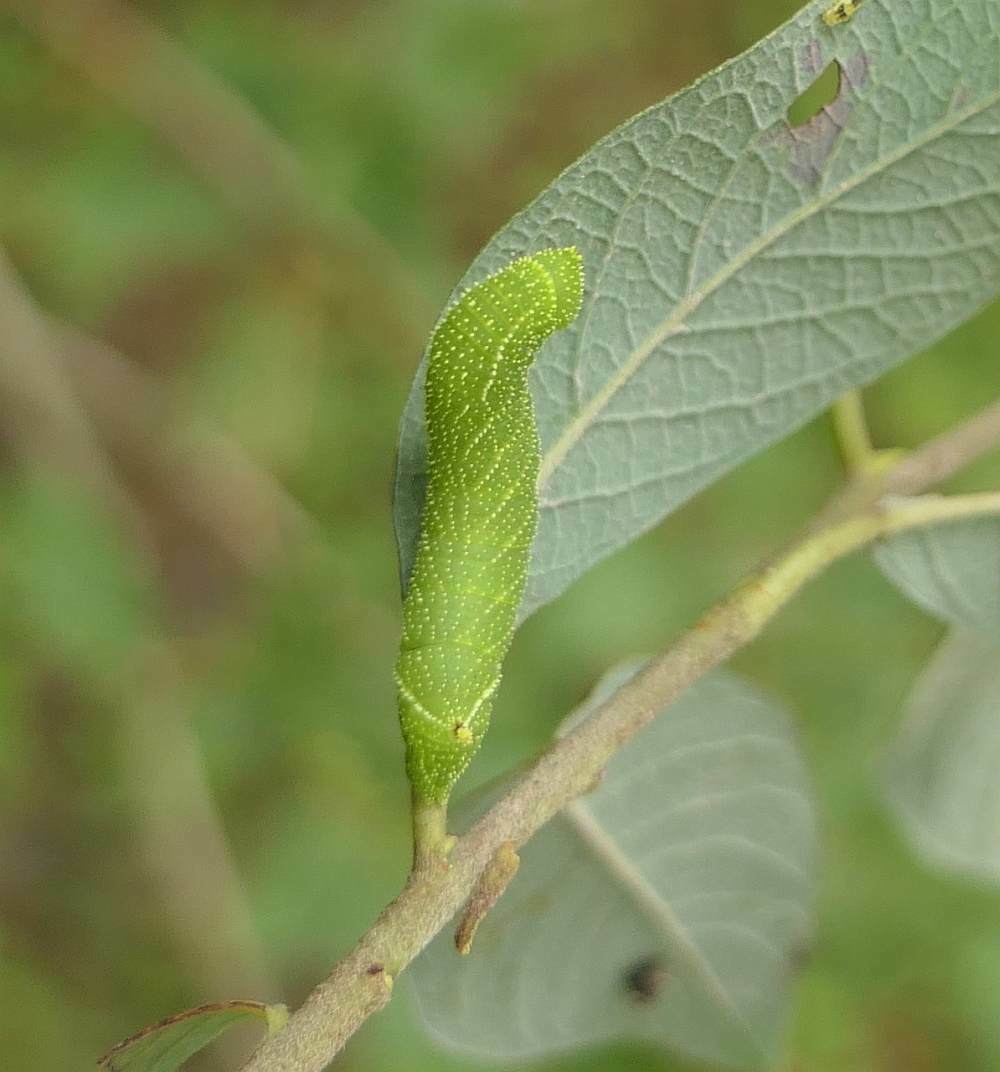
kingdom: Animalia
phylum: Arthropoda
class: Insecta
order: Lepidoptera
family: Sphingidae
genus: Paonias
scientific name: Paonias excaecata
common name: Blind-eyed sphinx
